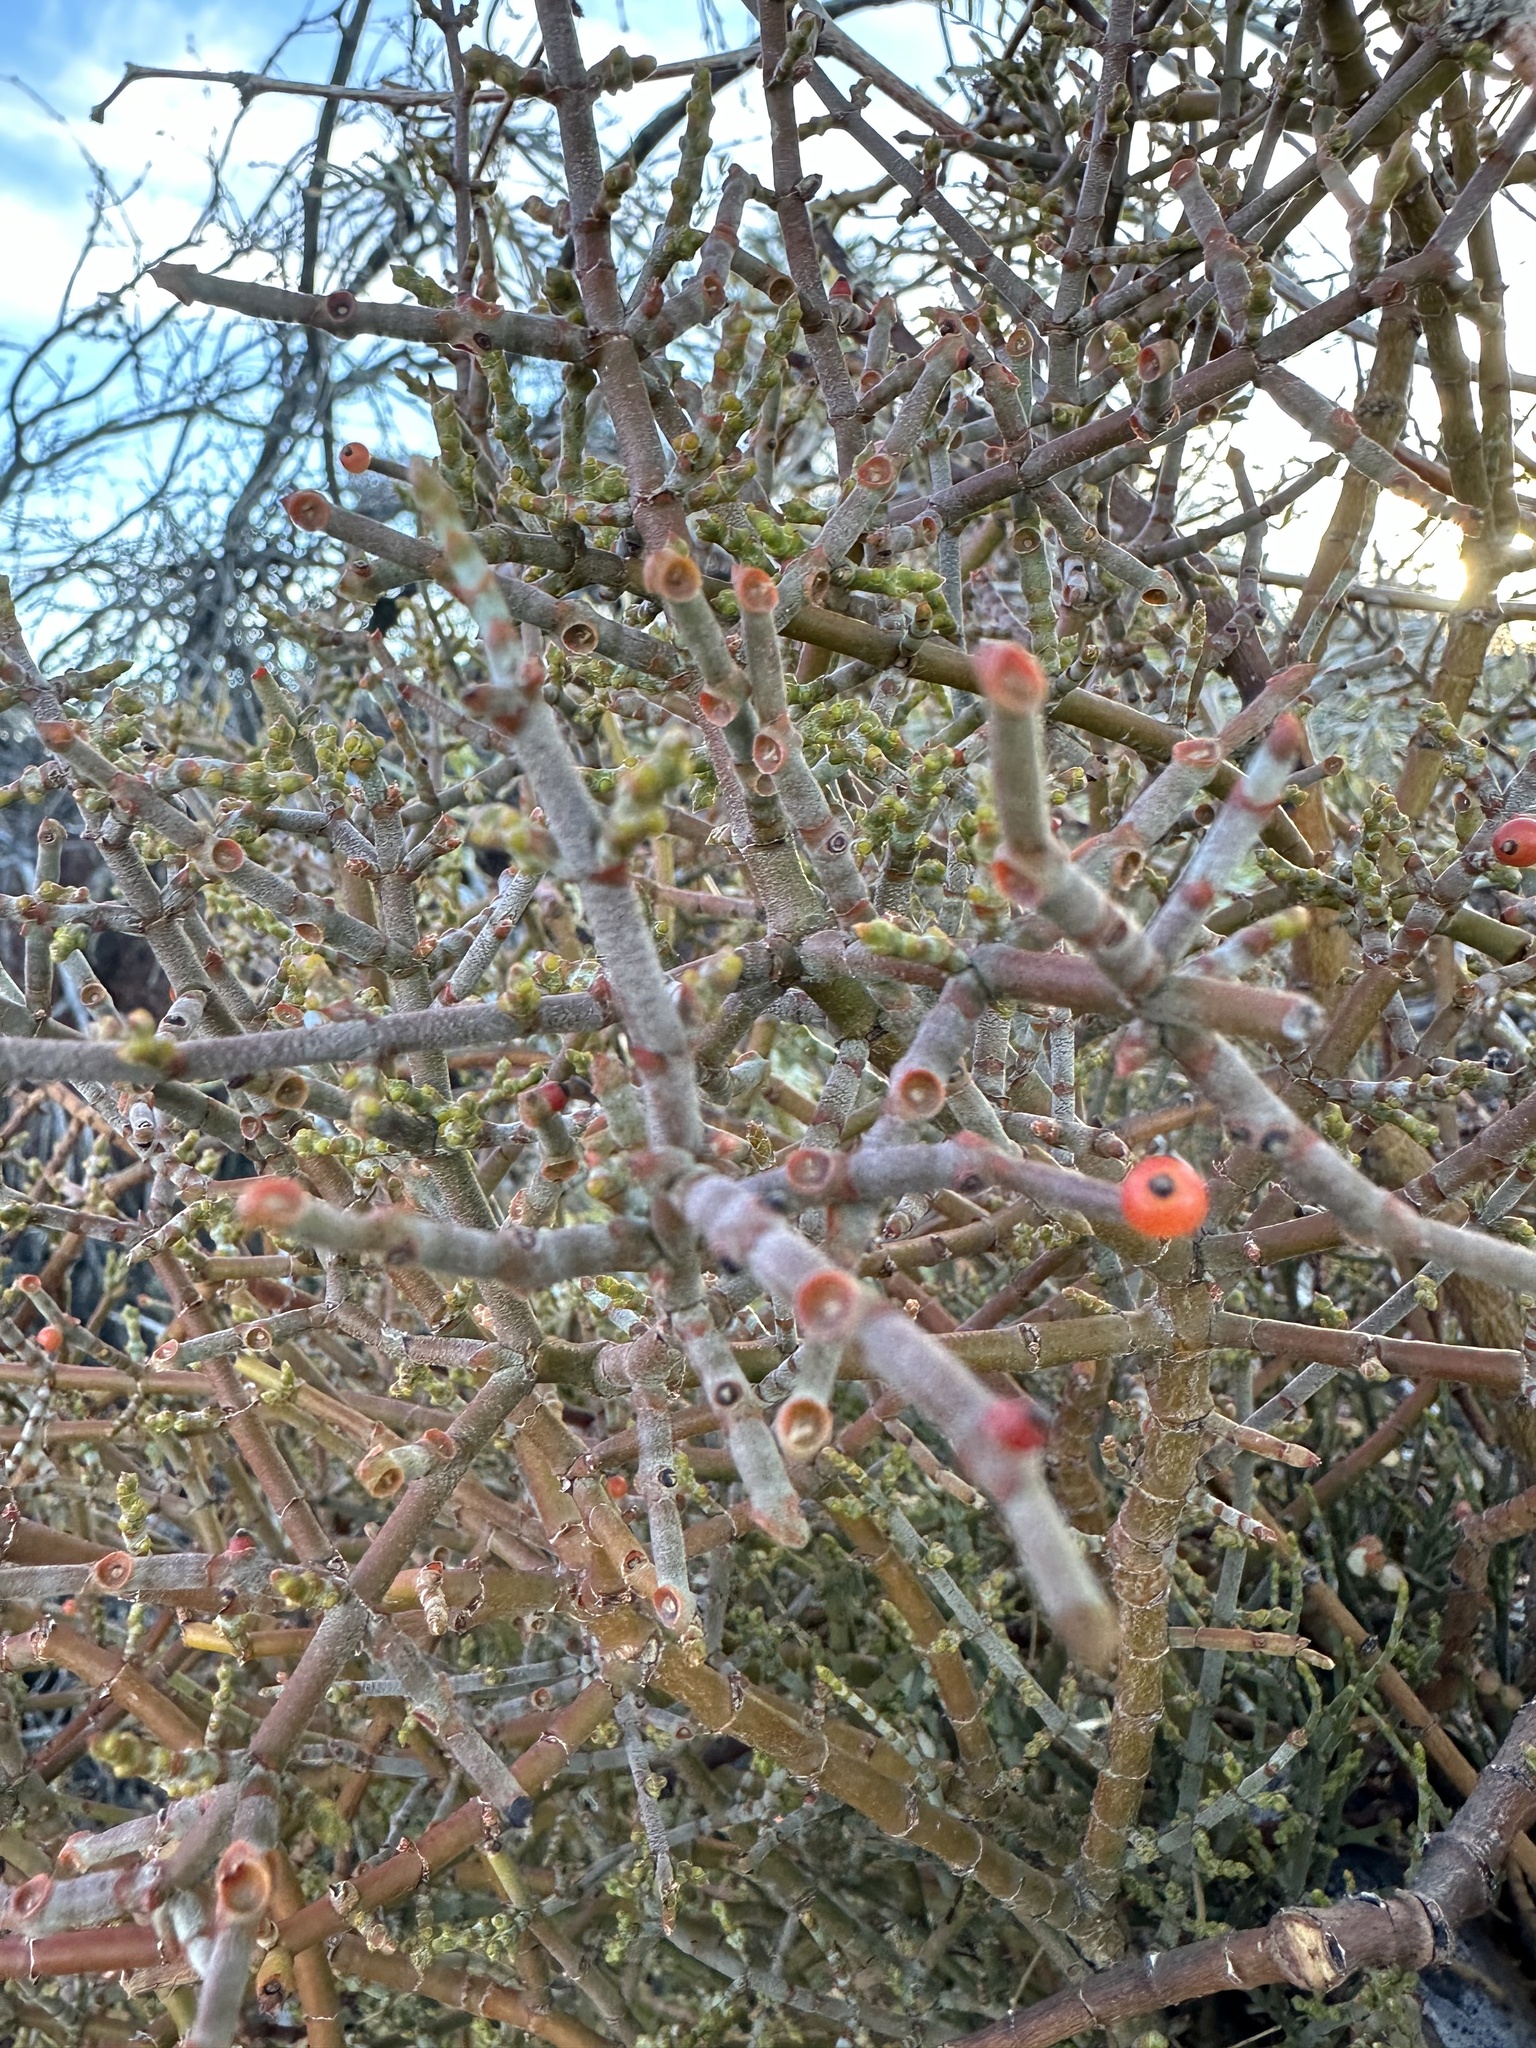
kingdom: Plantae
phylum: Tracheophyta
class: Magnoliopsida
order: Santalales
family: Viscaceae
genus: Phoradendron
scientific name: Phoradendron californicum
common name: Acacia mistletoe
